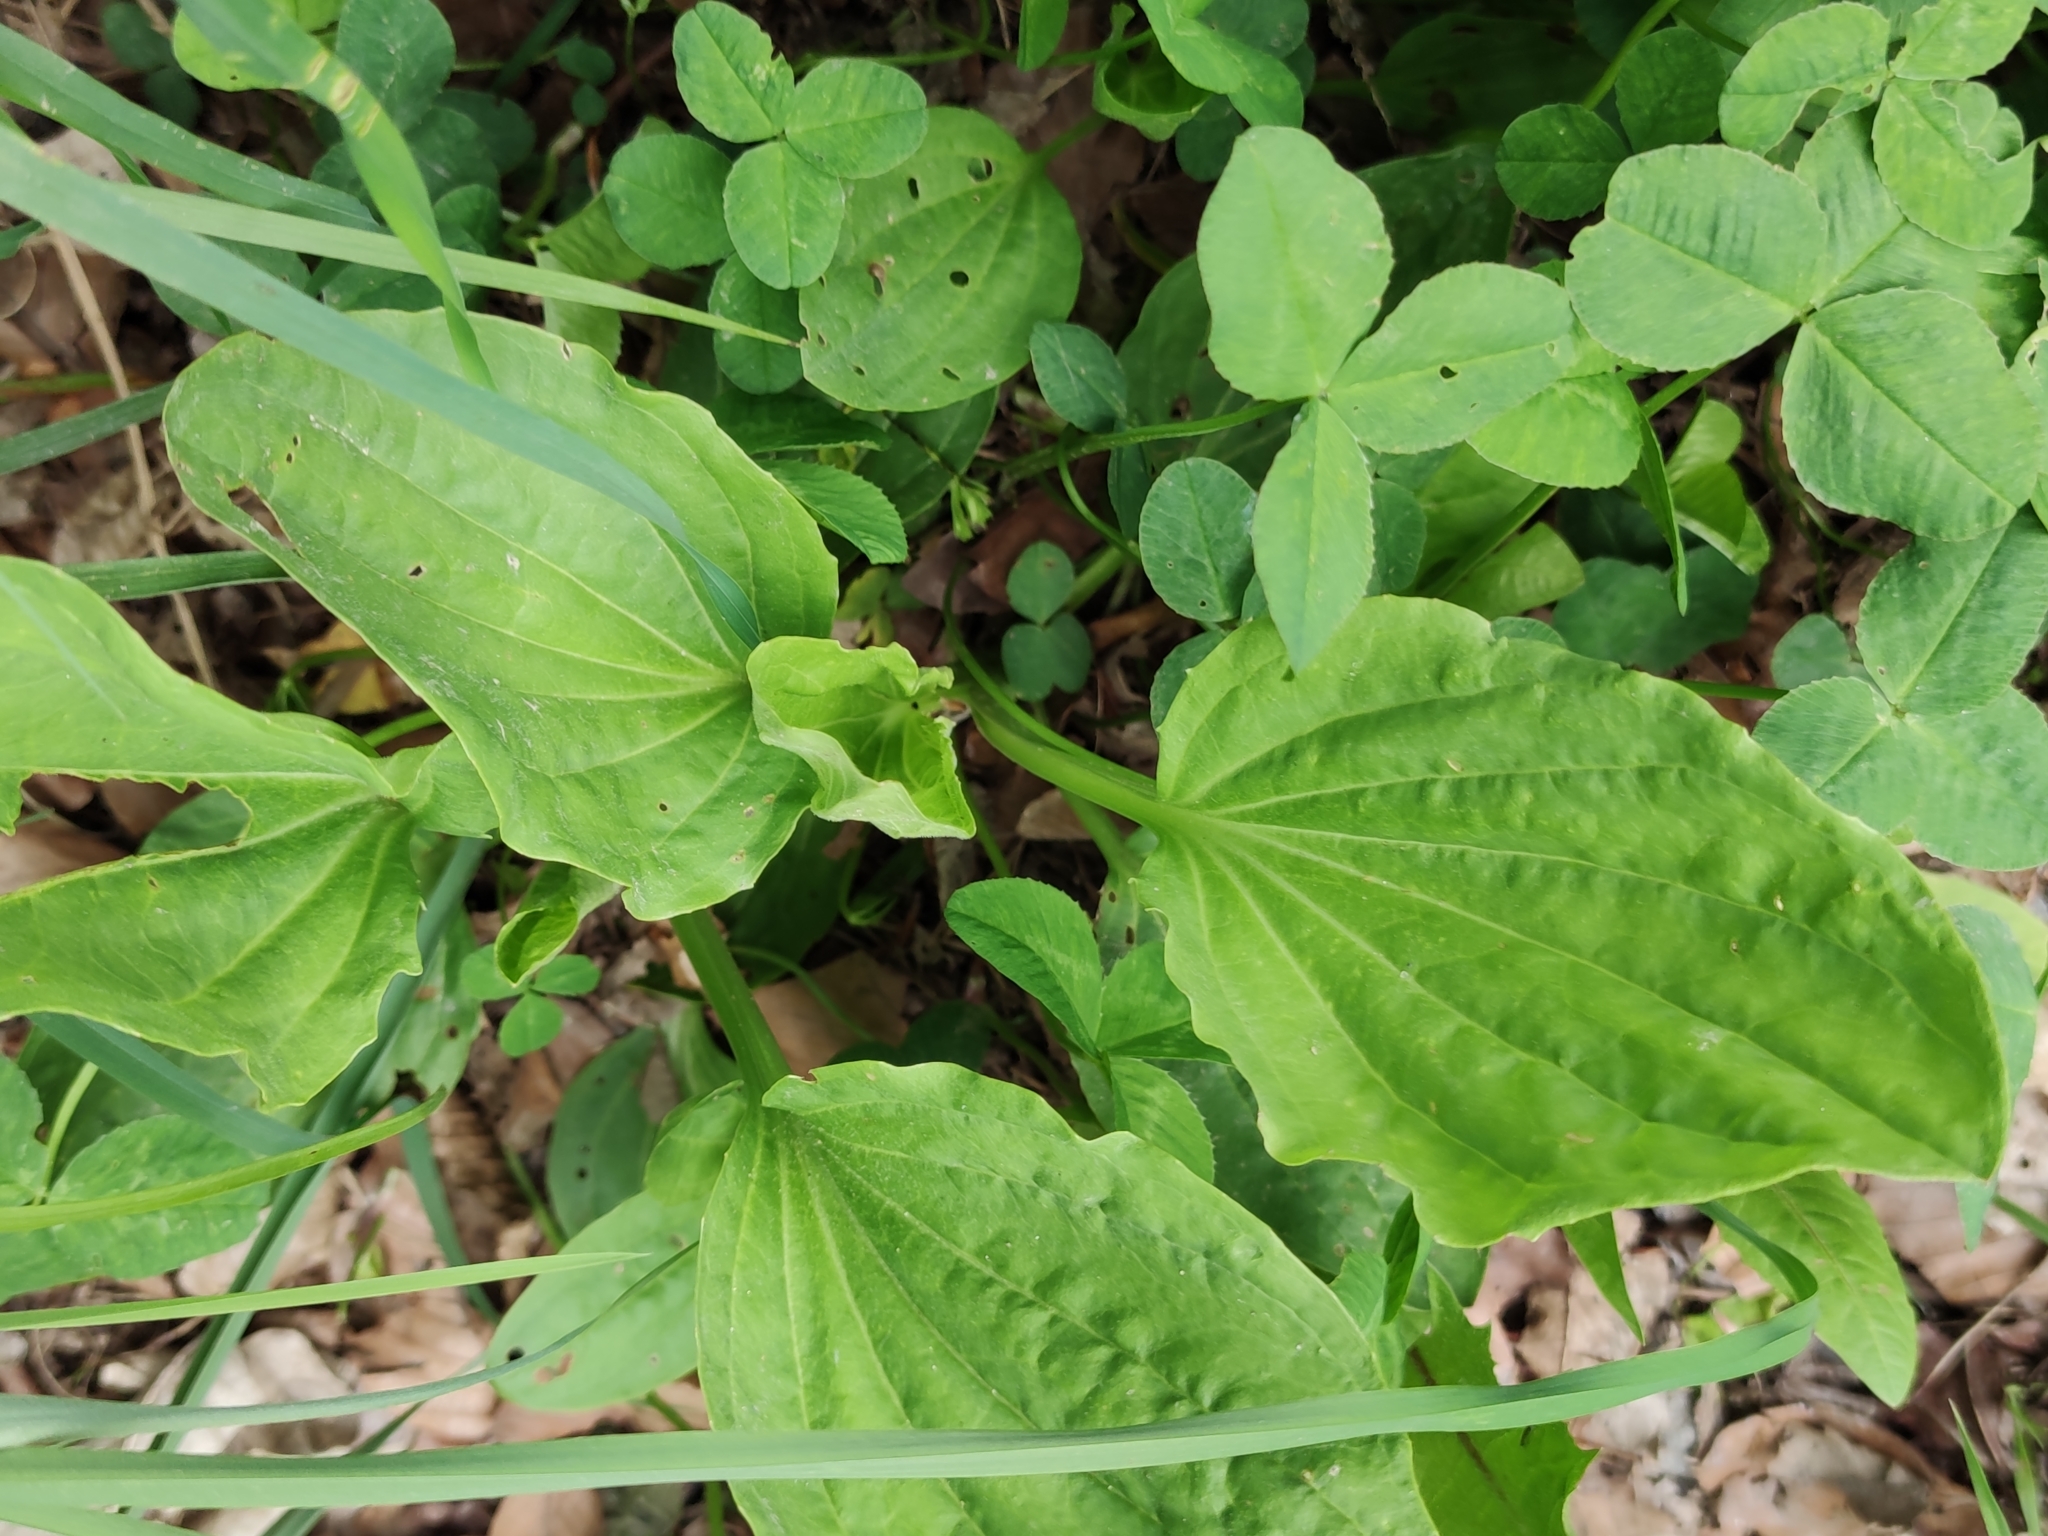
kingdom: Plantae
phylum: Tracheophyta
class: Magnoliopsida
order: Lamiales
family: Plantaginaceae
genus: Plantago
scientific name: Plantago major
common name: Common plantain
